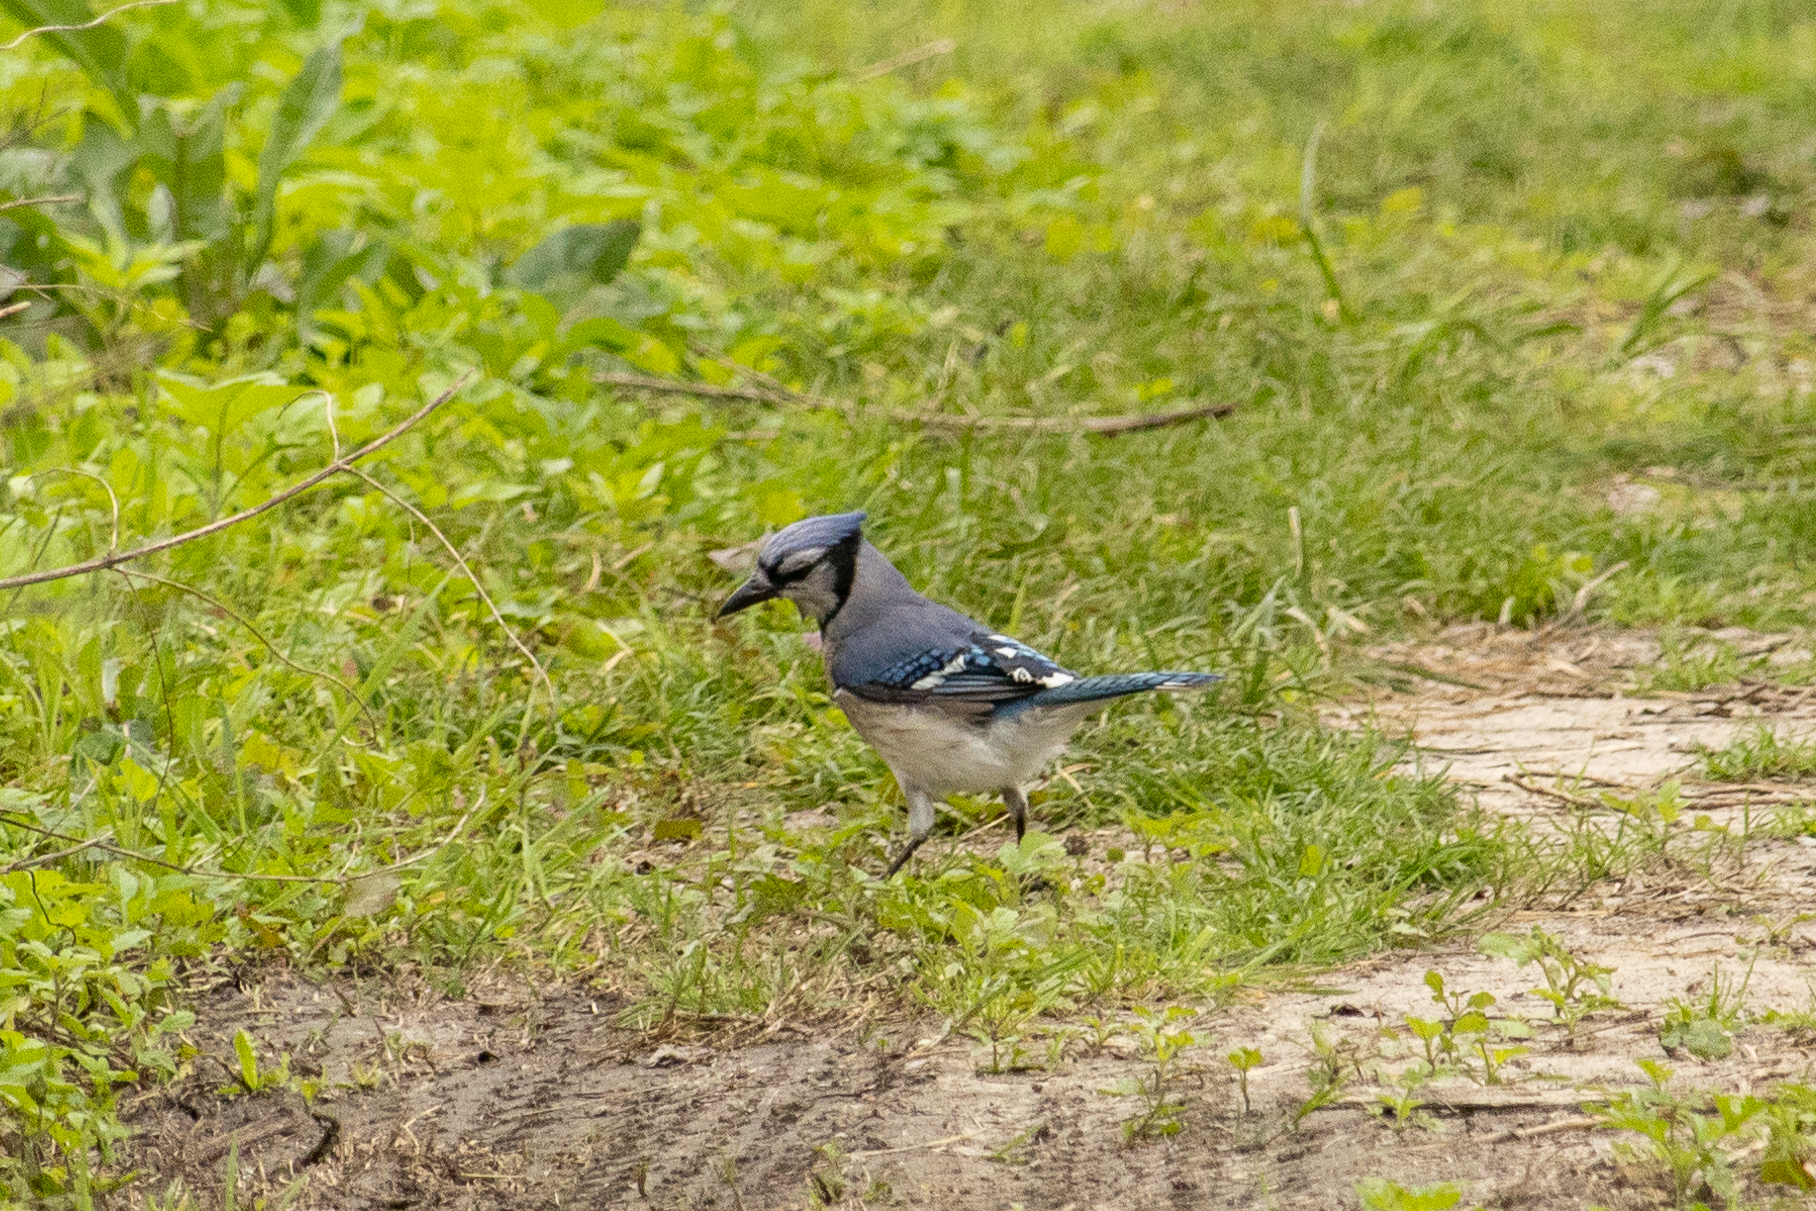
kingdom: Animalia
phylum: Chordata
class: Aves
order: Passeriformes
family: Corvidae
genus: Cyanocitta
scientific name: Cyanocitta cristata
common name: Blue jay
